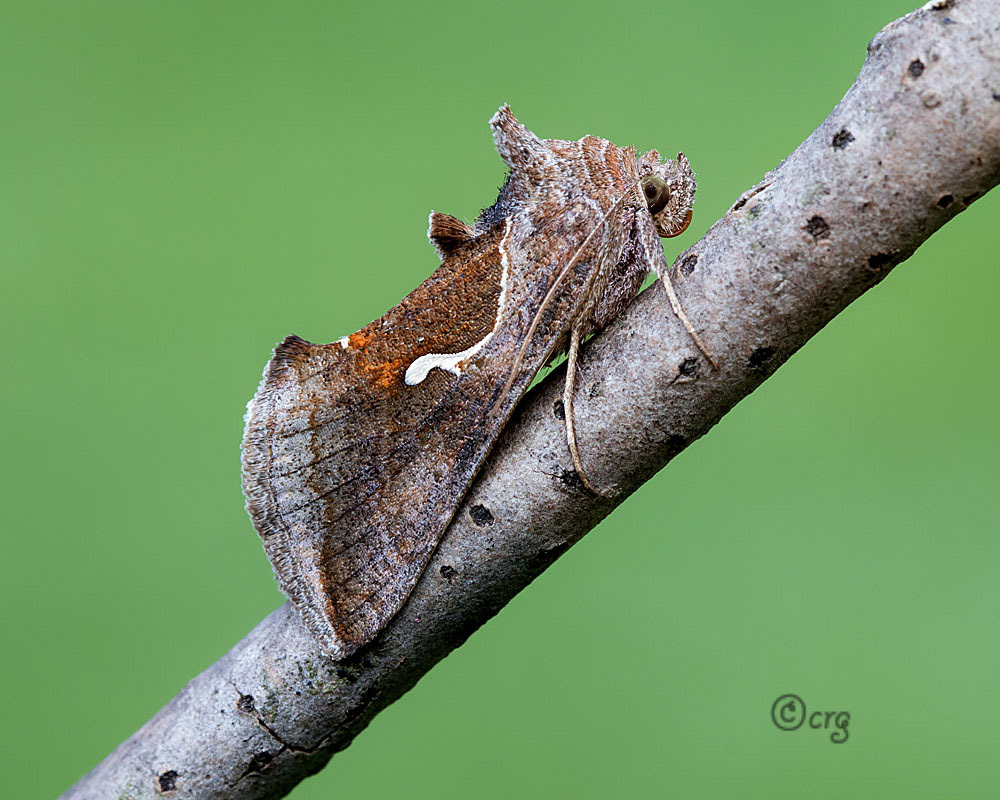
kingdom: Animalia
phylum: Arthropoda
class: Insecta
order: Lepidoptera
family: Noctuidae
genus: Anagrapha
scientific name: Anagrapha falcifera
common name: Celery looper
